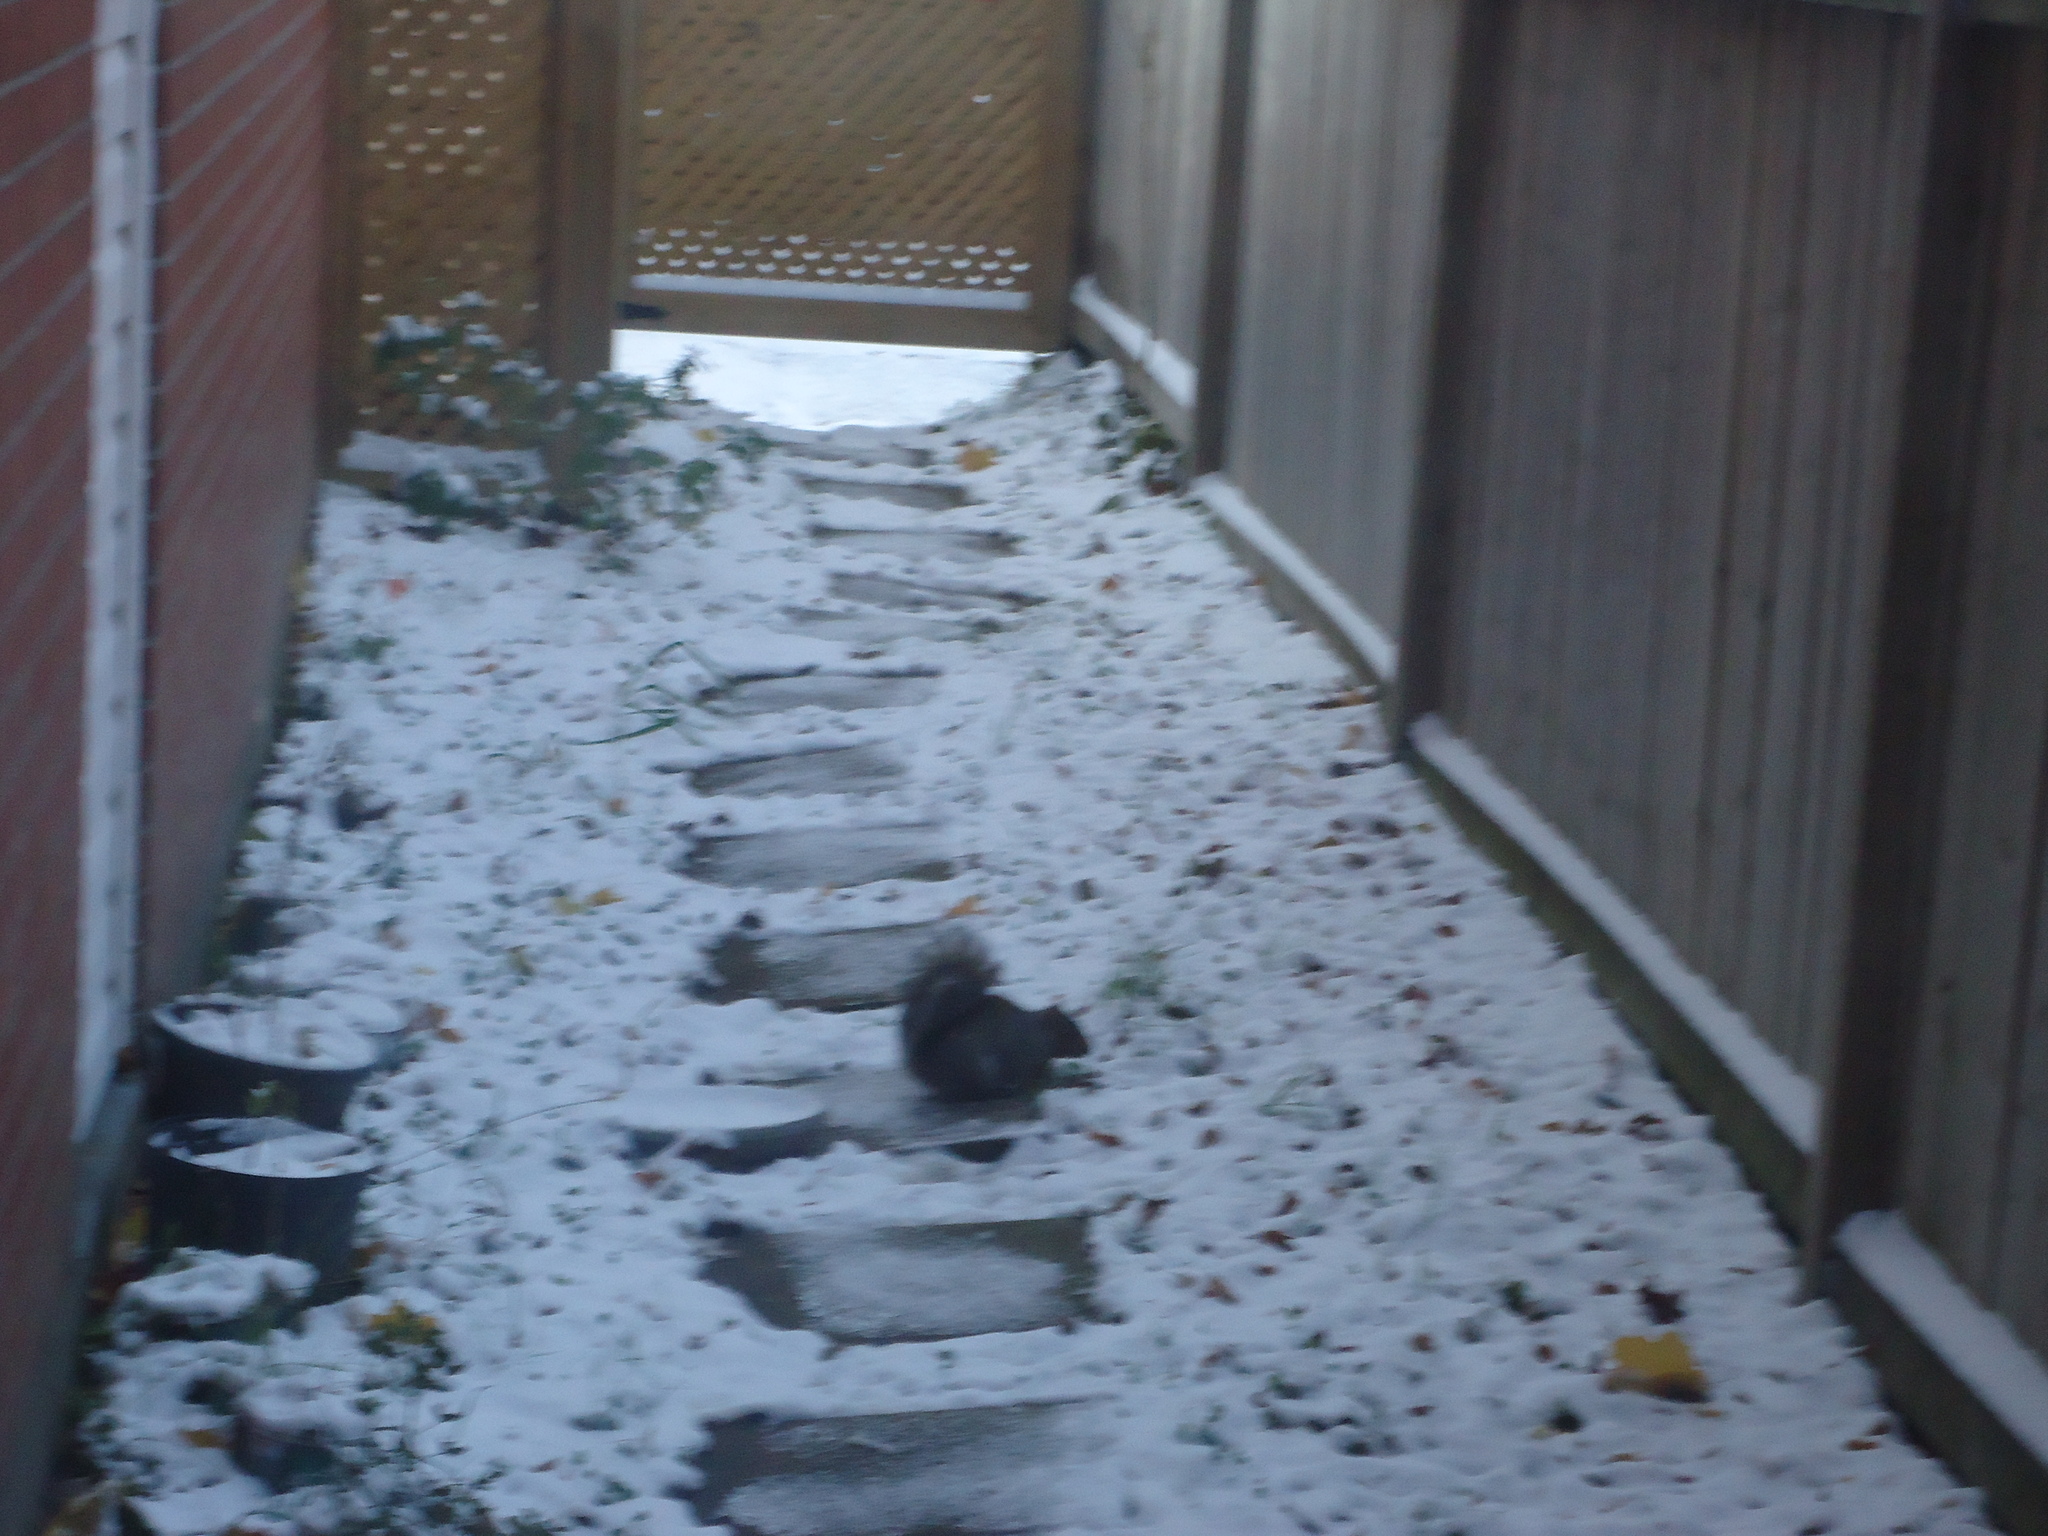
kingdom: Animalia
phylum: Chordata
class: Mammalia
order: Rodentia
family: Sciuridae
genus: Sciurus
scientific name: Sciurus carolinensis
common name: Eastern gray squirrel
